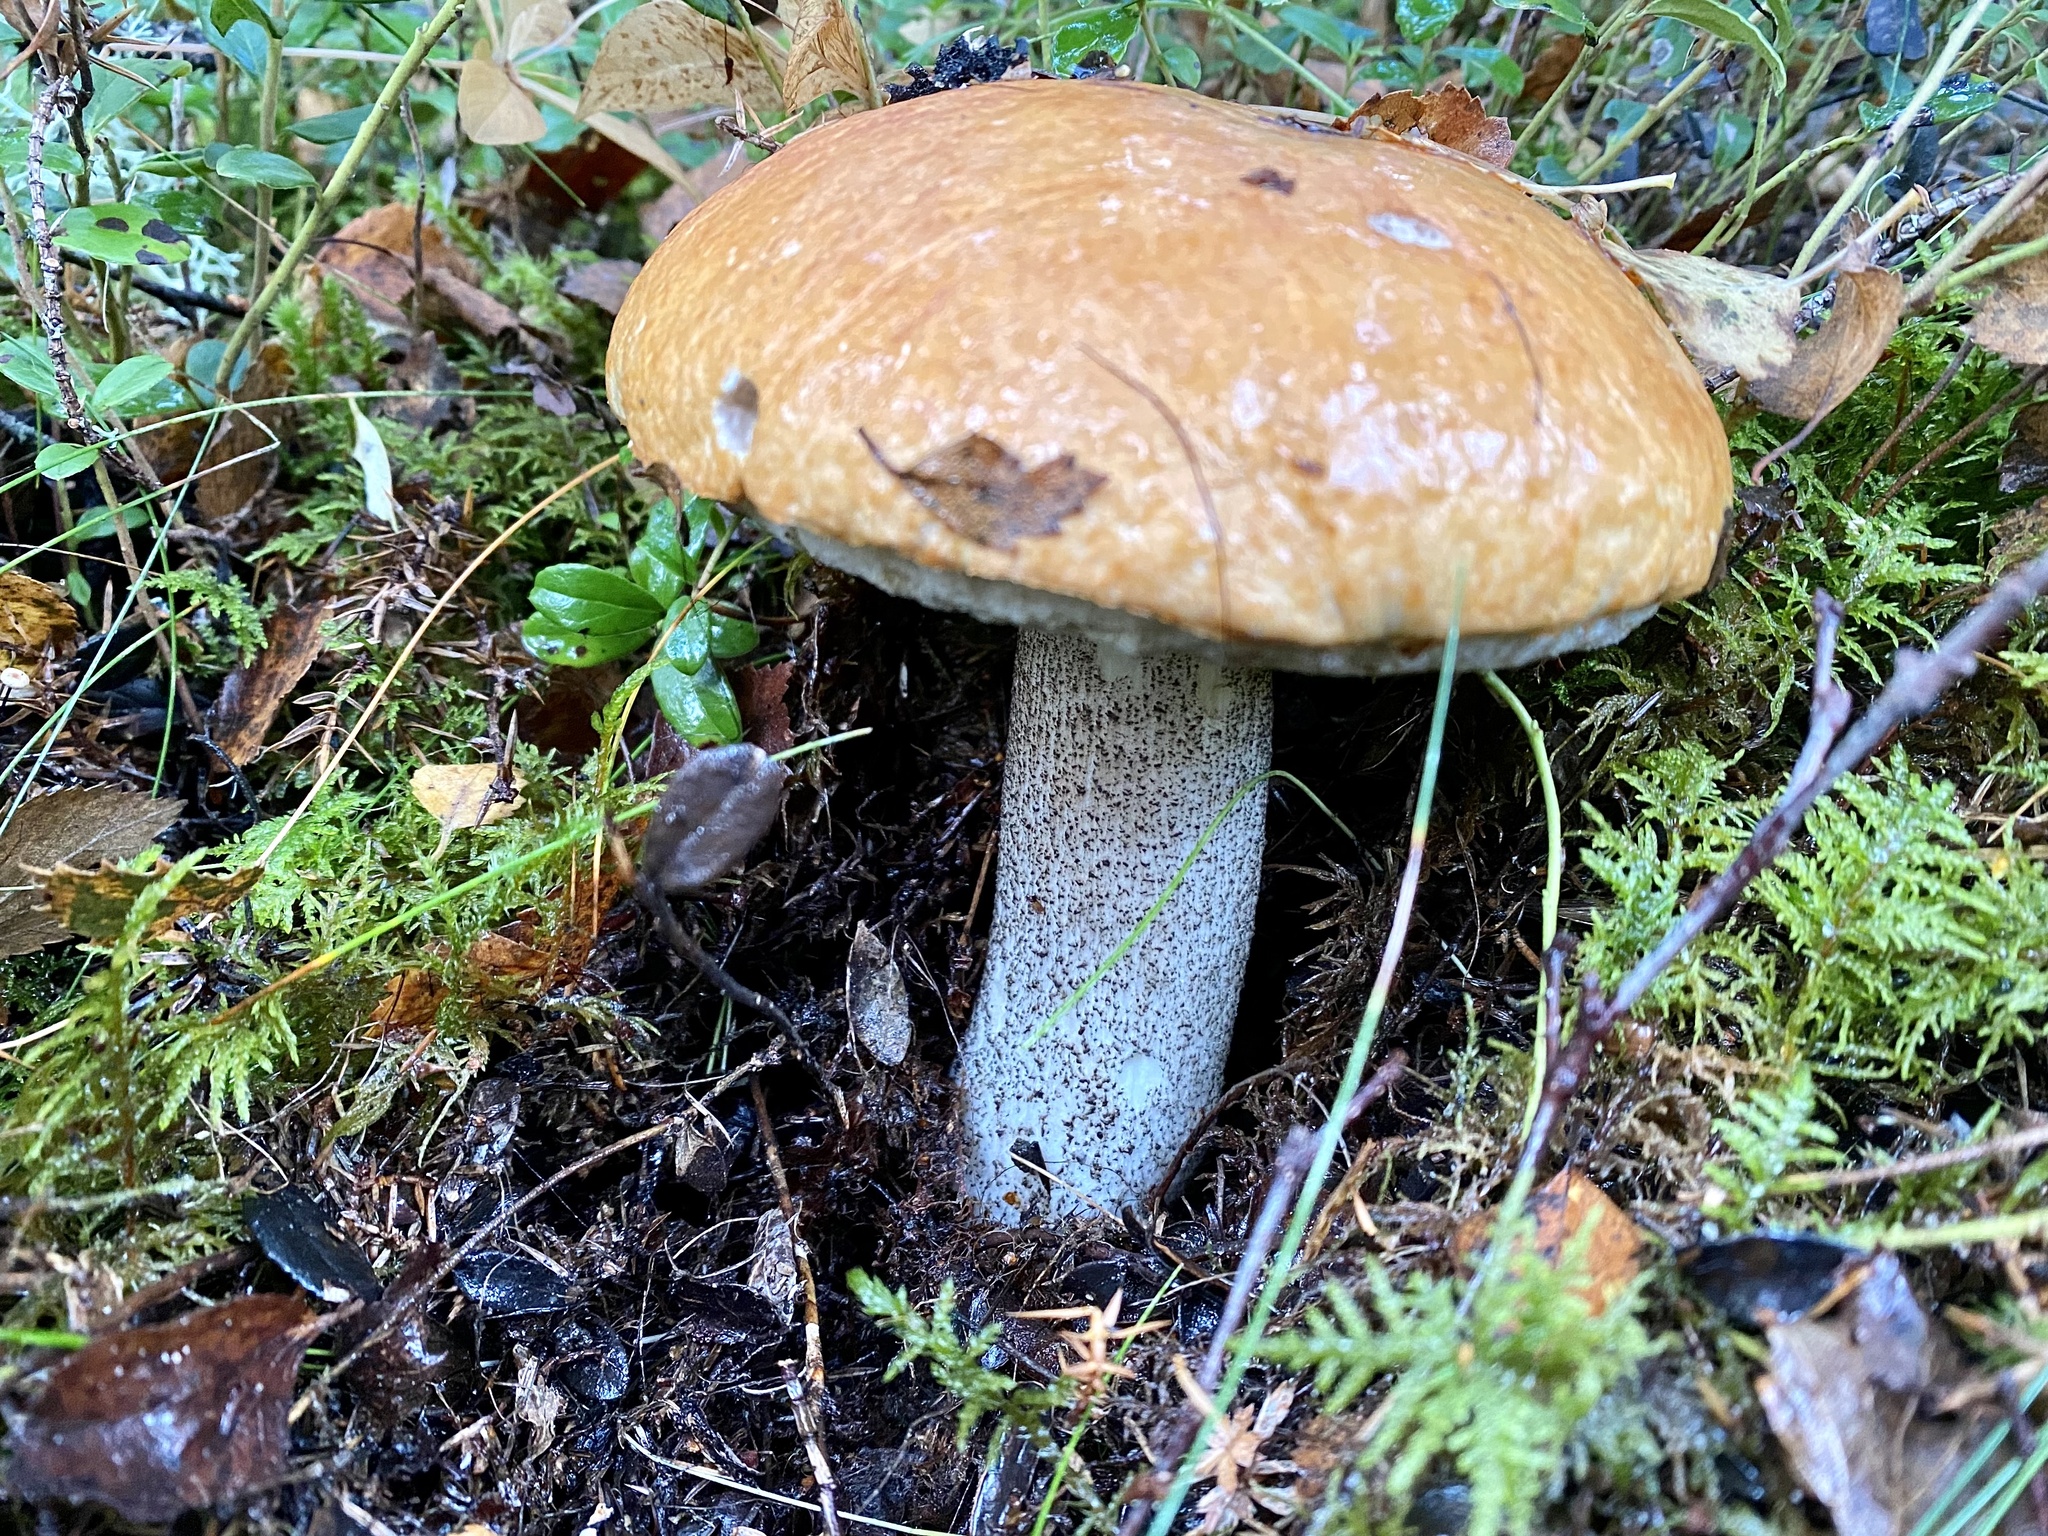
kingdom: Fungi
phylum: Basidiomycota
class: Agaricomycetes
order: Boletales
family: Boletaceae
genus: Leccinum
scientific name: Leccinum versipelle
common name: Orange birch bolete
